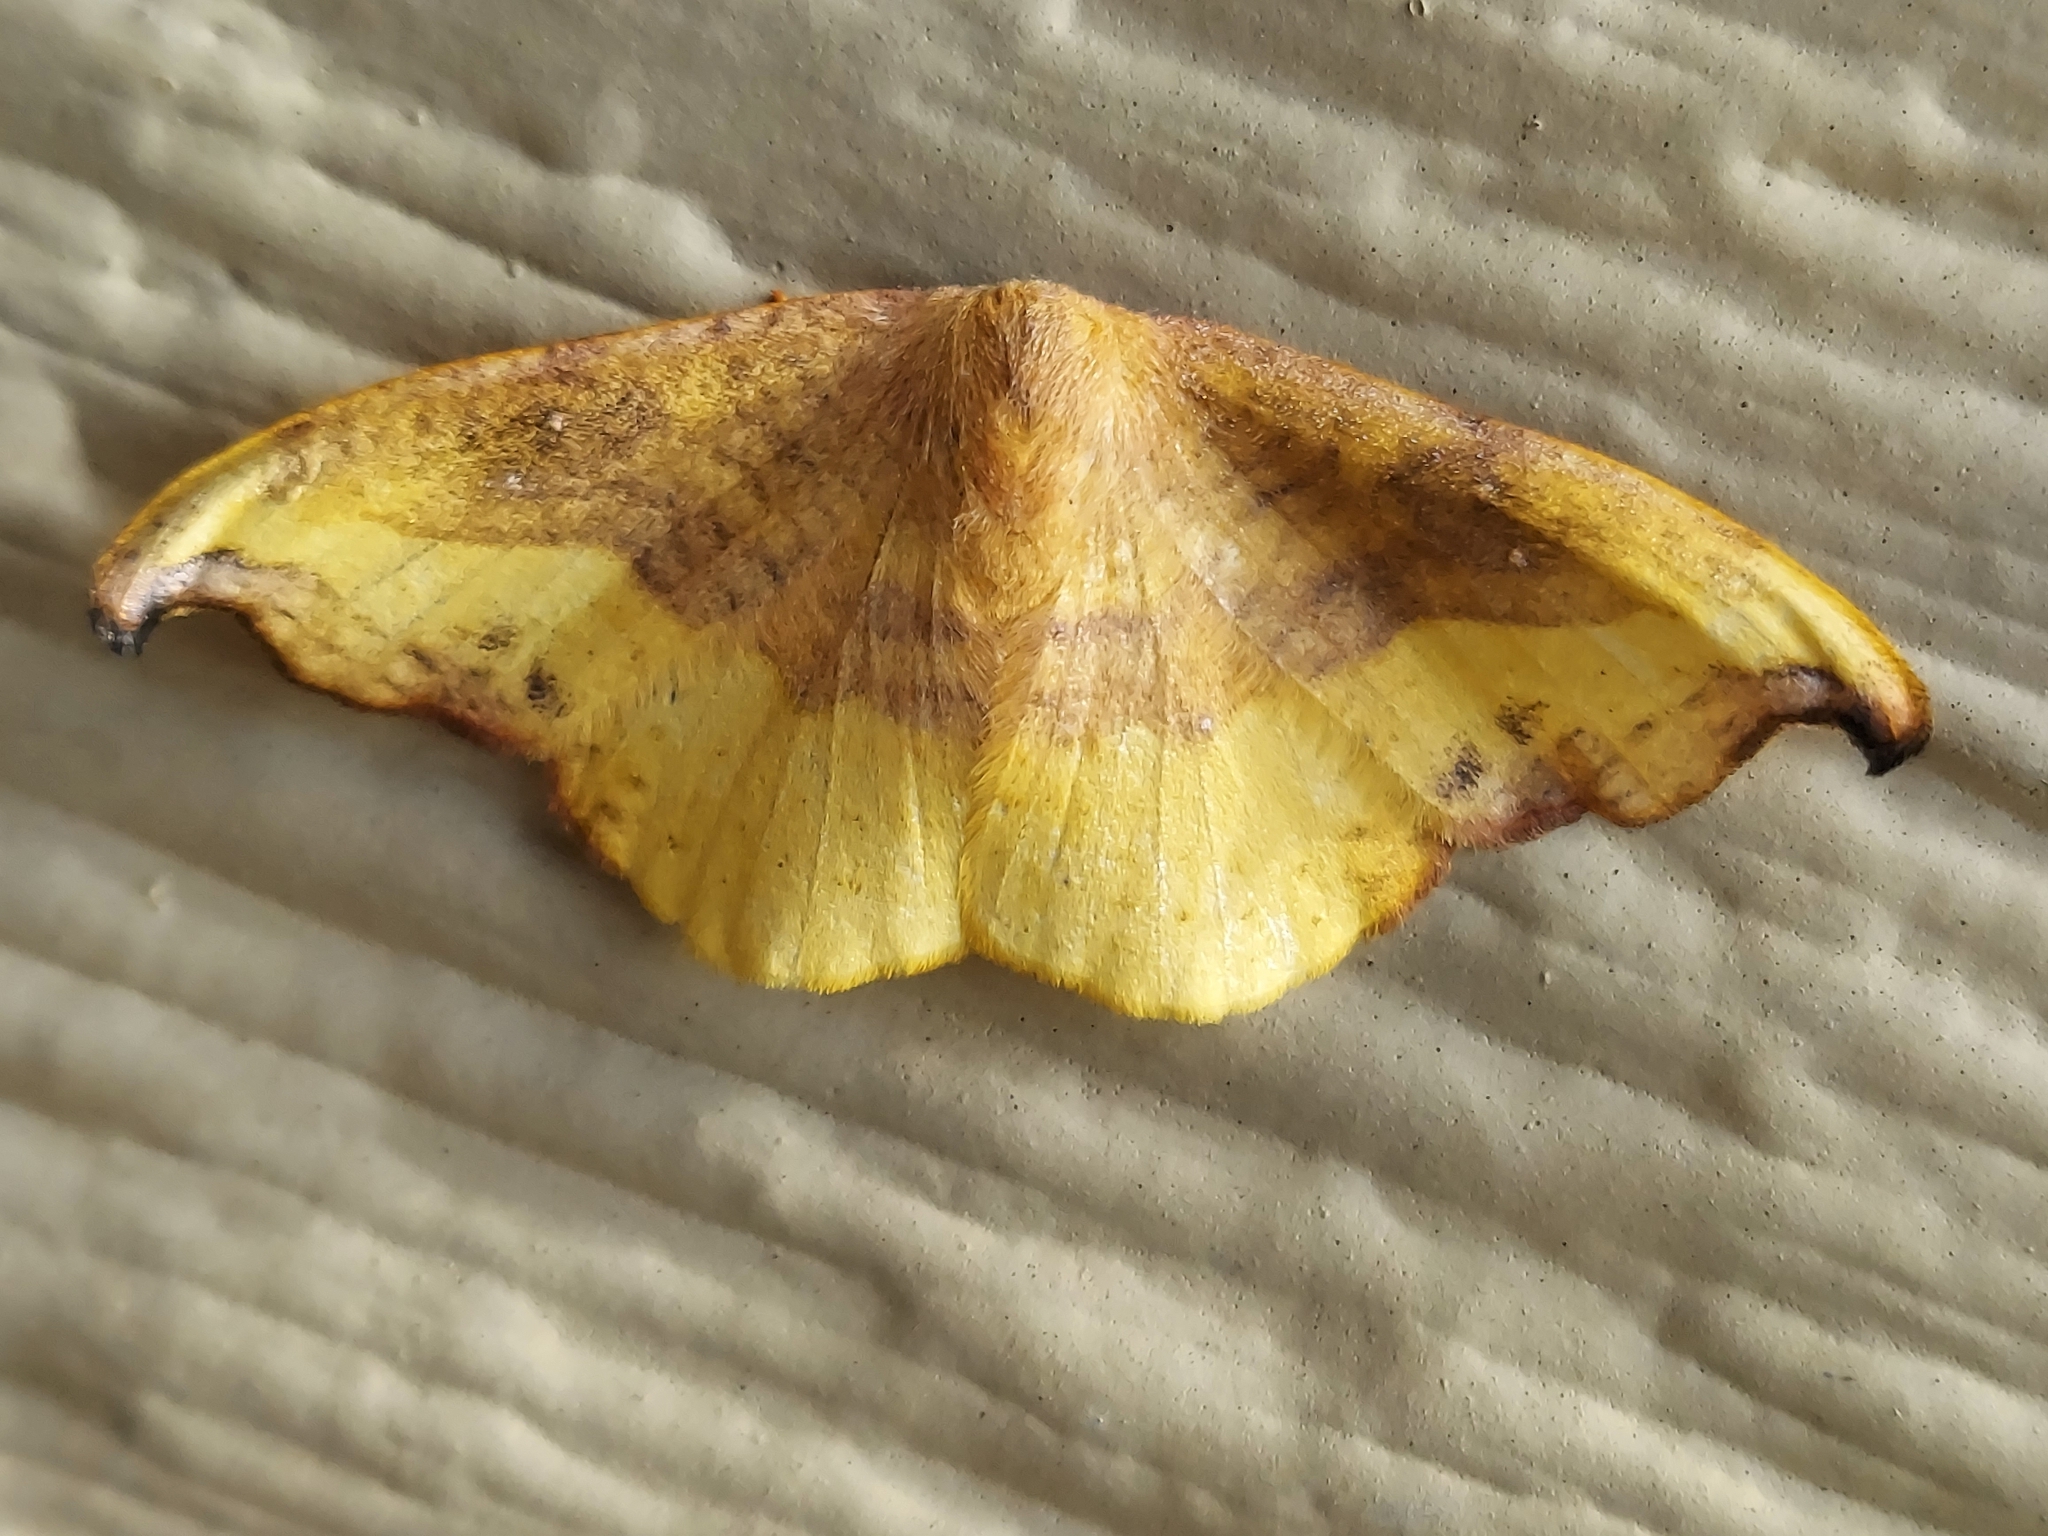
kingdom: Animalia
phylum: Arthropoda
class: Insecta
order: Lepidoptera
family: Drepanidae
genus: Oreta
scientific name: Oreta rosea
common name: Rose hooktip
